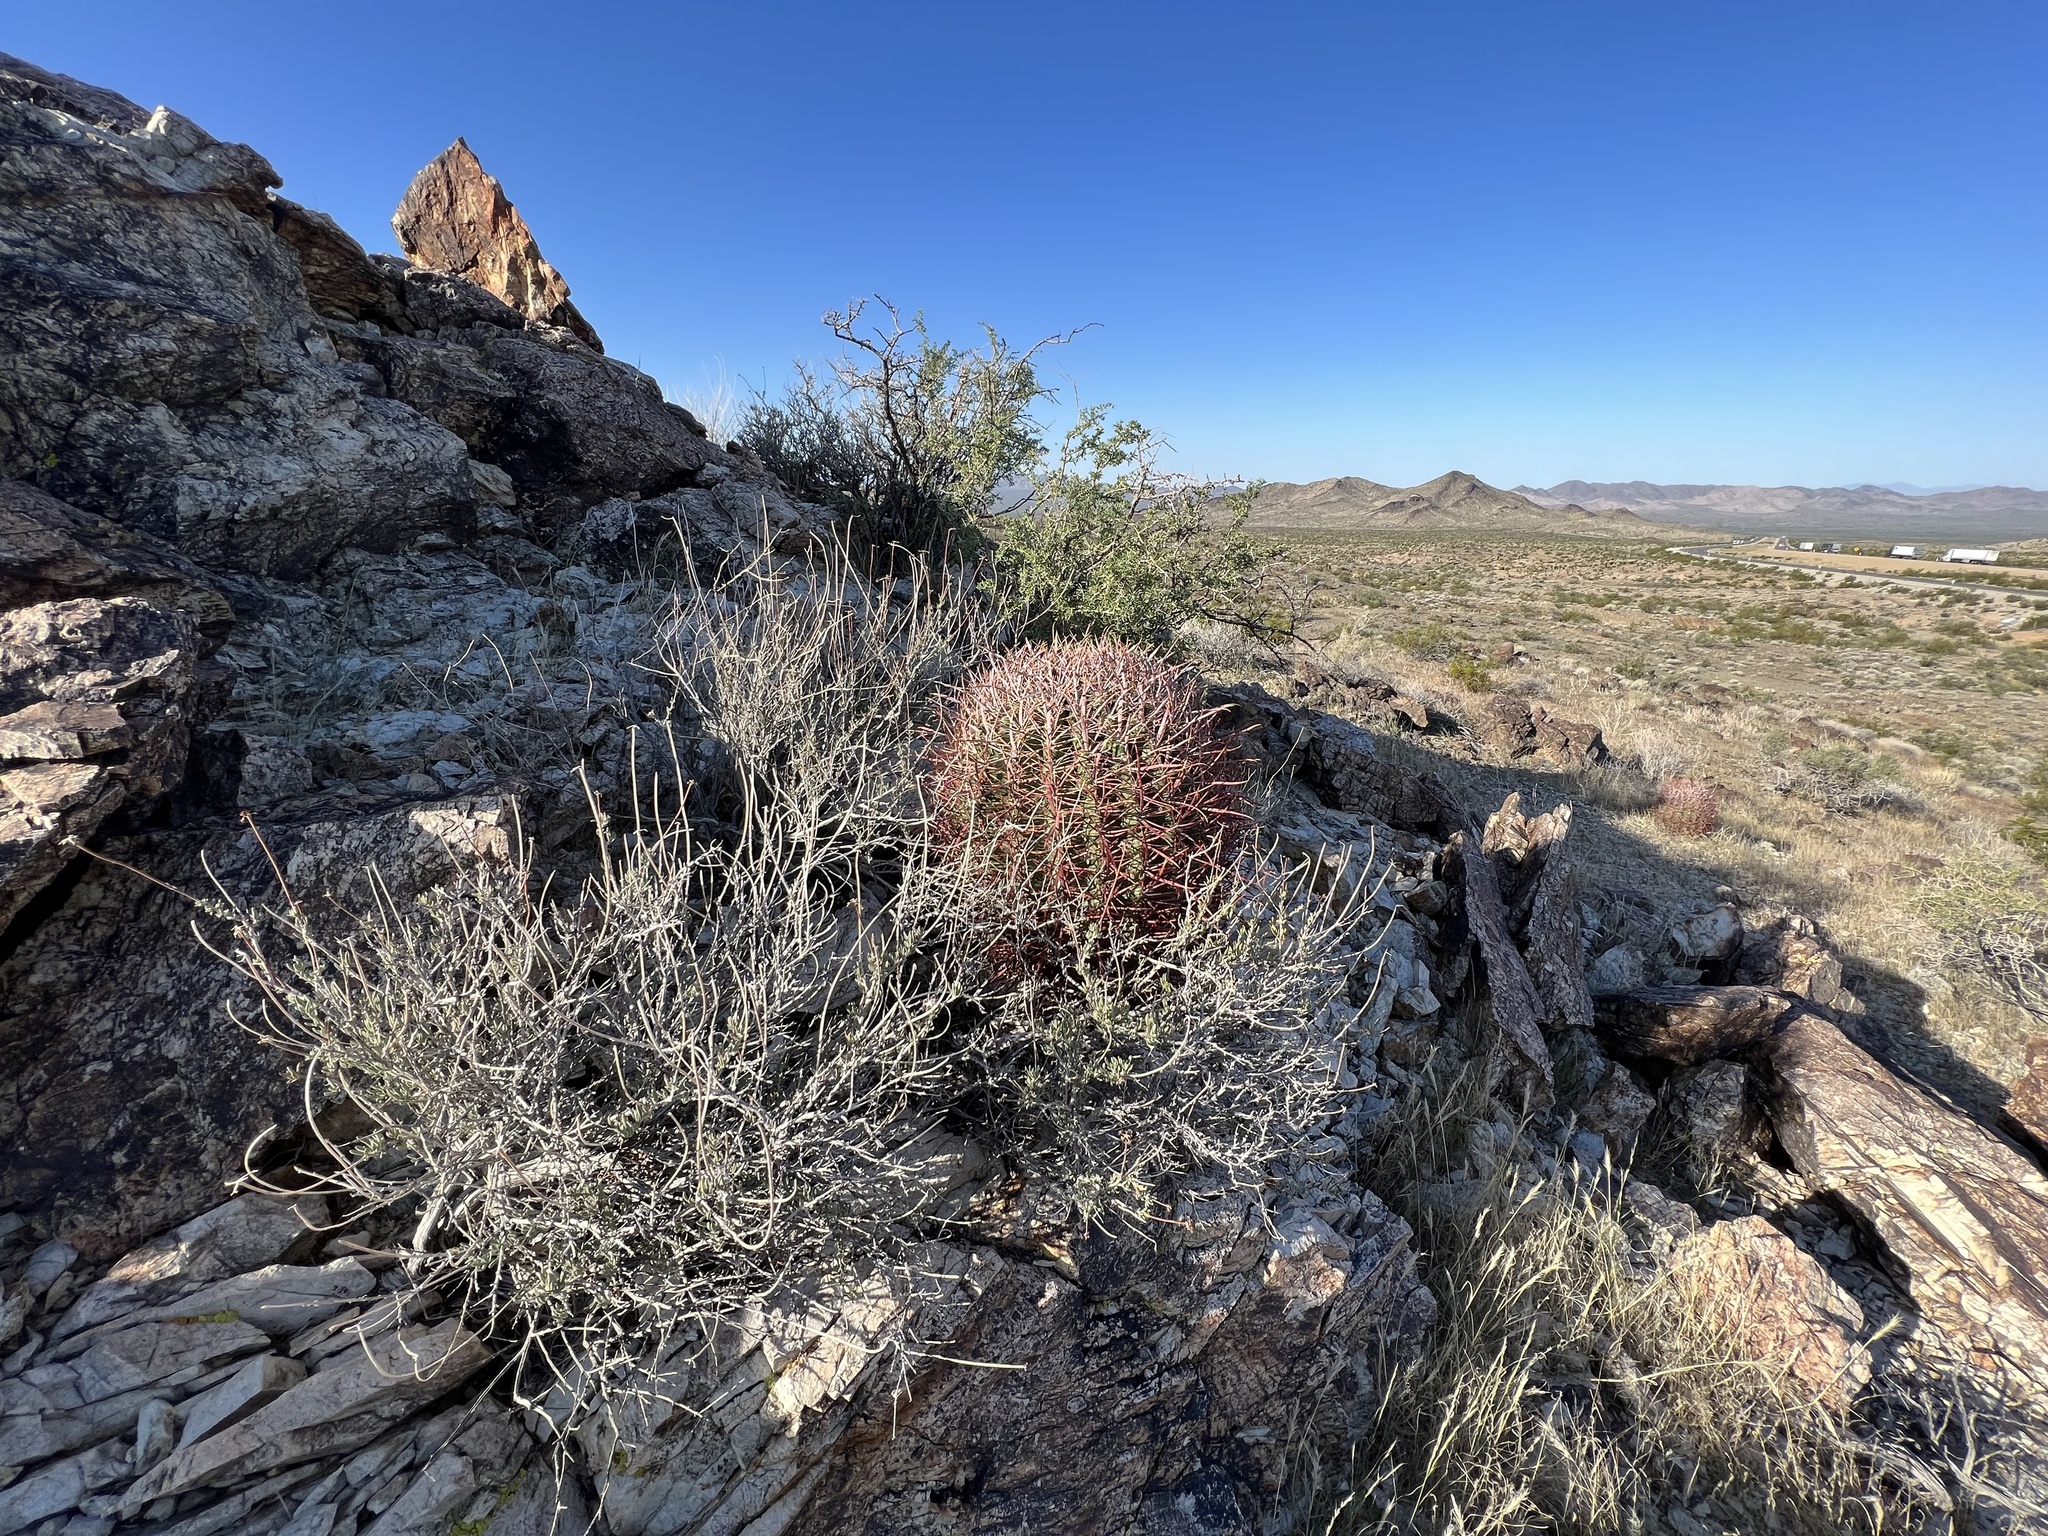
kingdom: Plantae
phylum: Tracheophyta
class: Magnoliopsida
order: Caryophyllales
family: Cactaceae
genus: Ferocactus
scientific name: Ferocactus cylindraceus
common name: California barrel cactus
